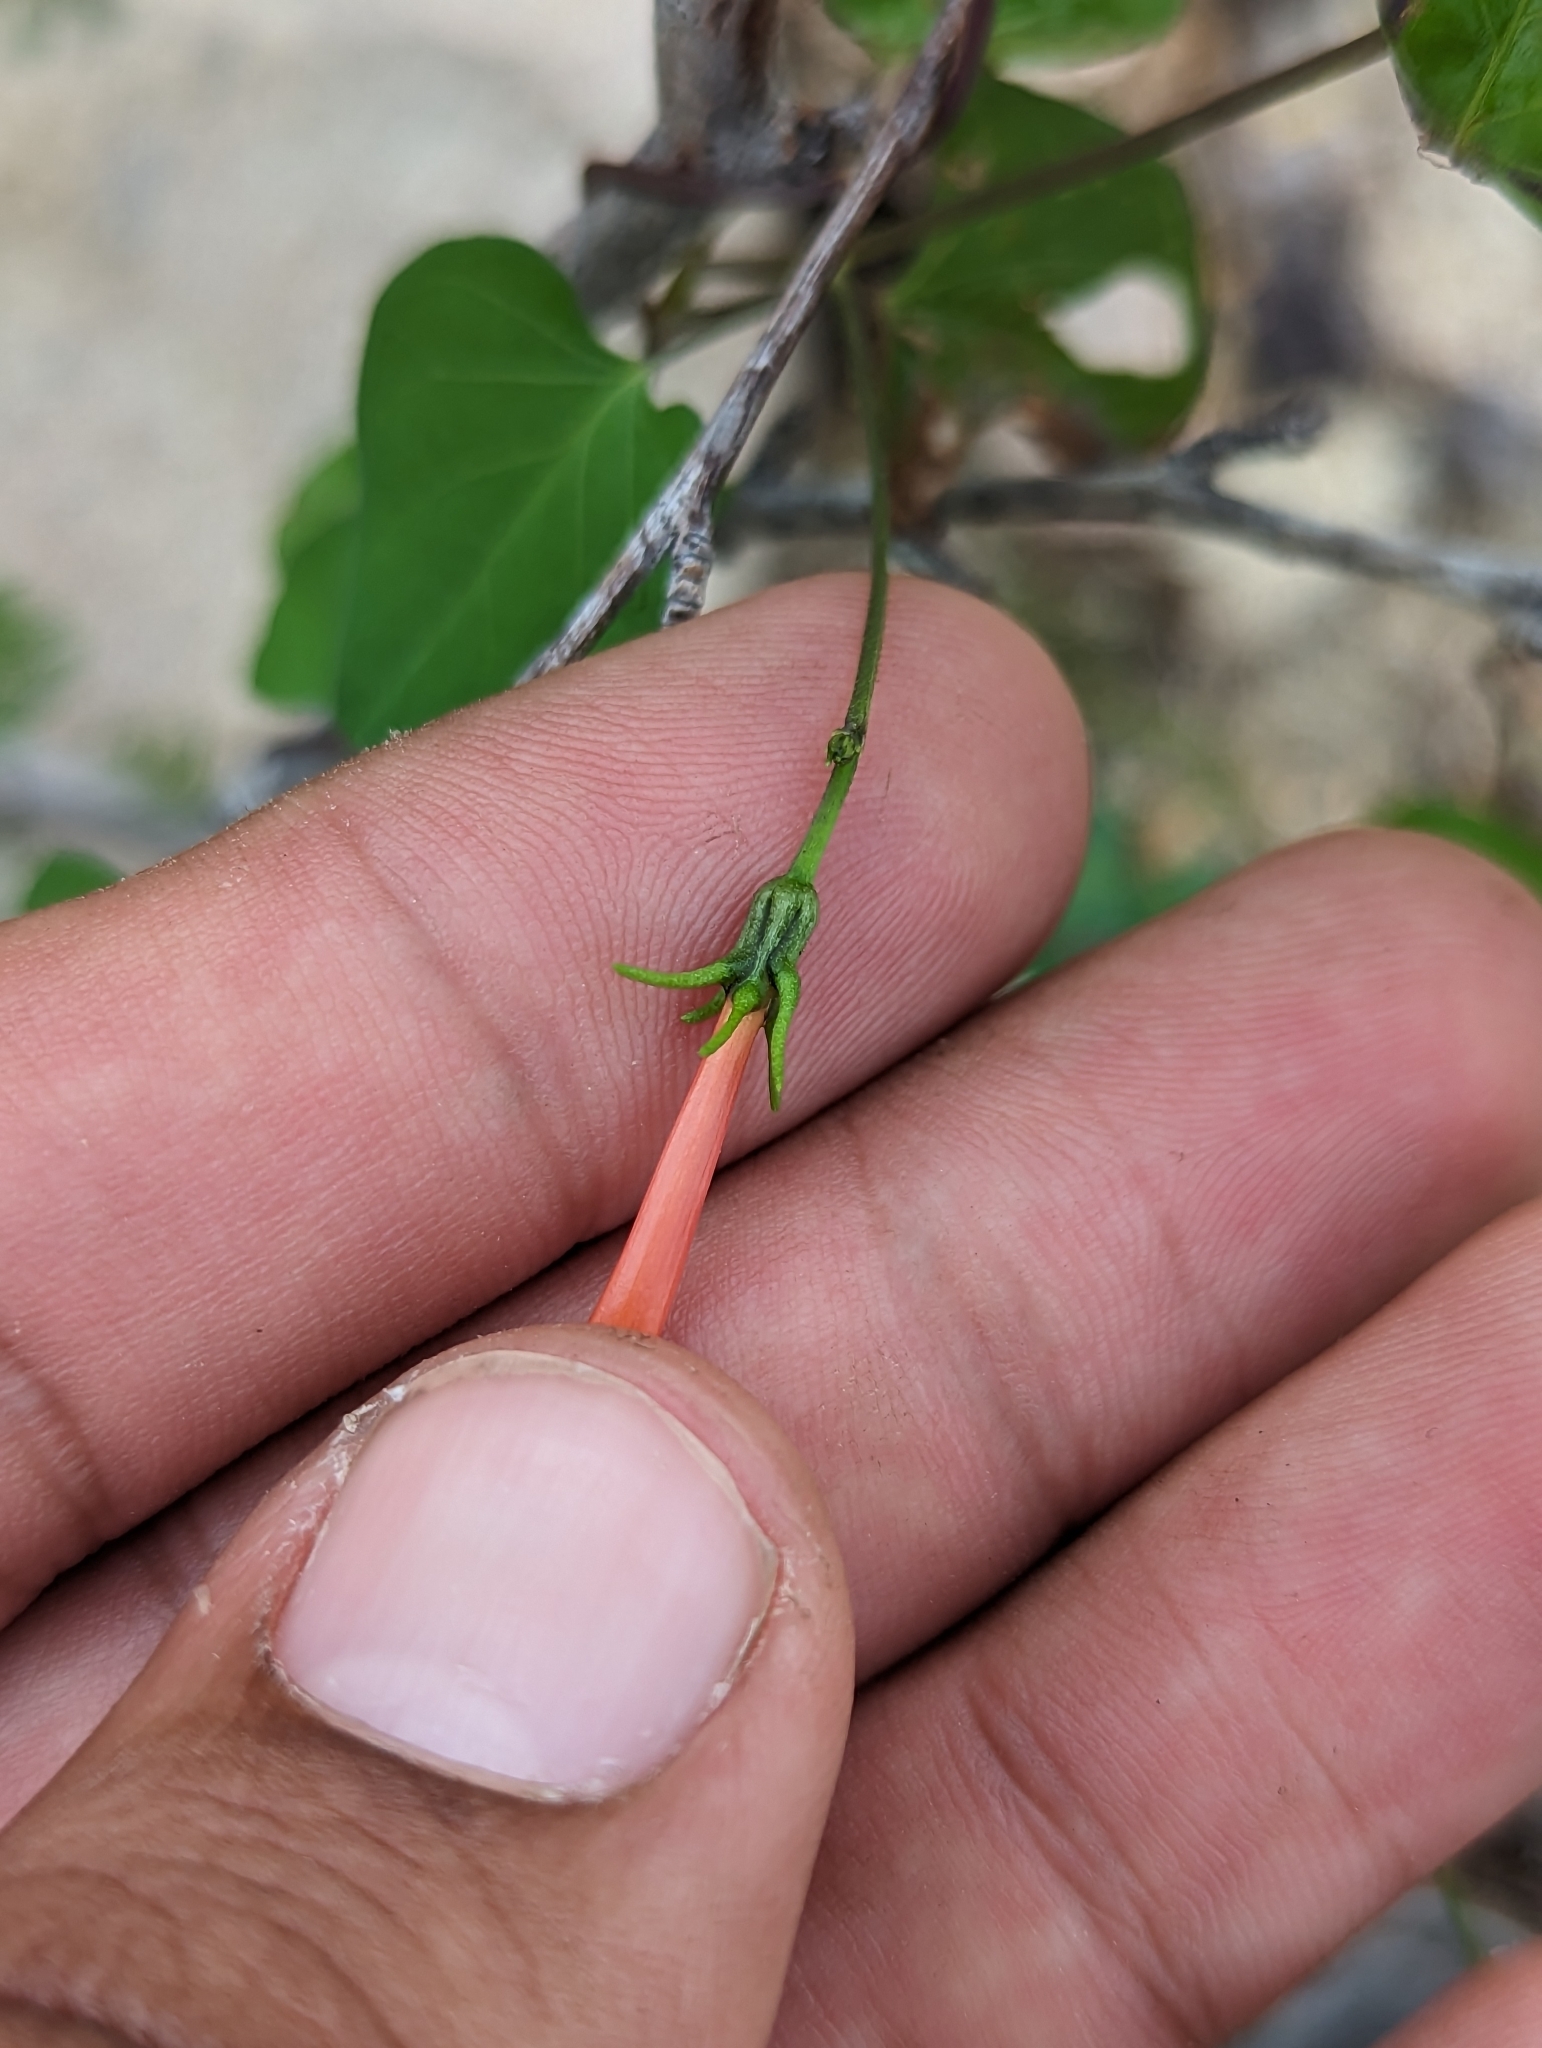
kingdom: Plantae
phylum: Tracheophyta
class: Magnoliopsida
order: Solanales
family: Convolvulaceae
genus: Ipomoea
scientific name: Ipomoea cristulata
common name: Trans-pecos morning-glory
